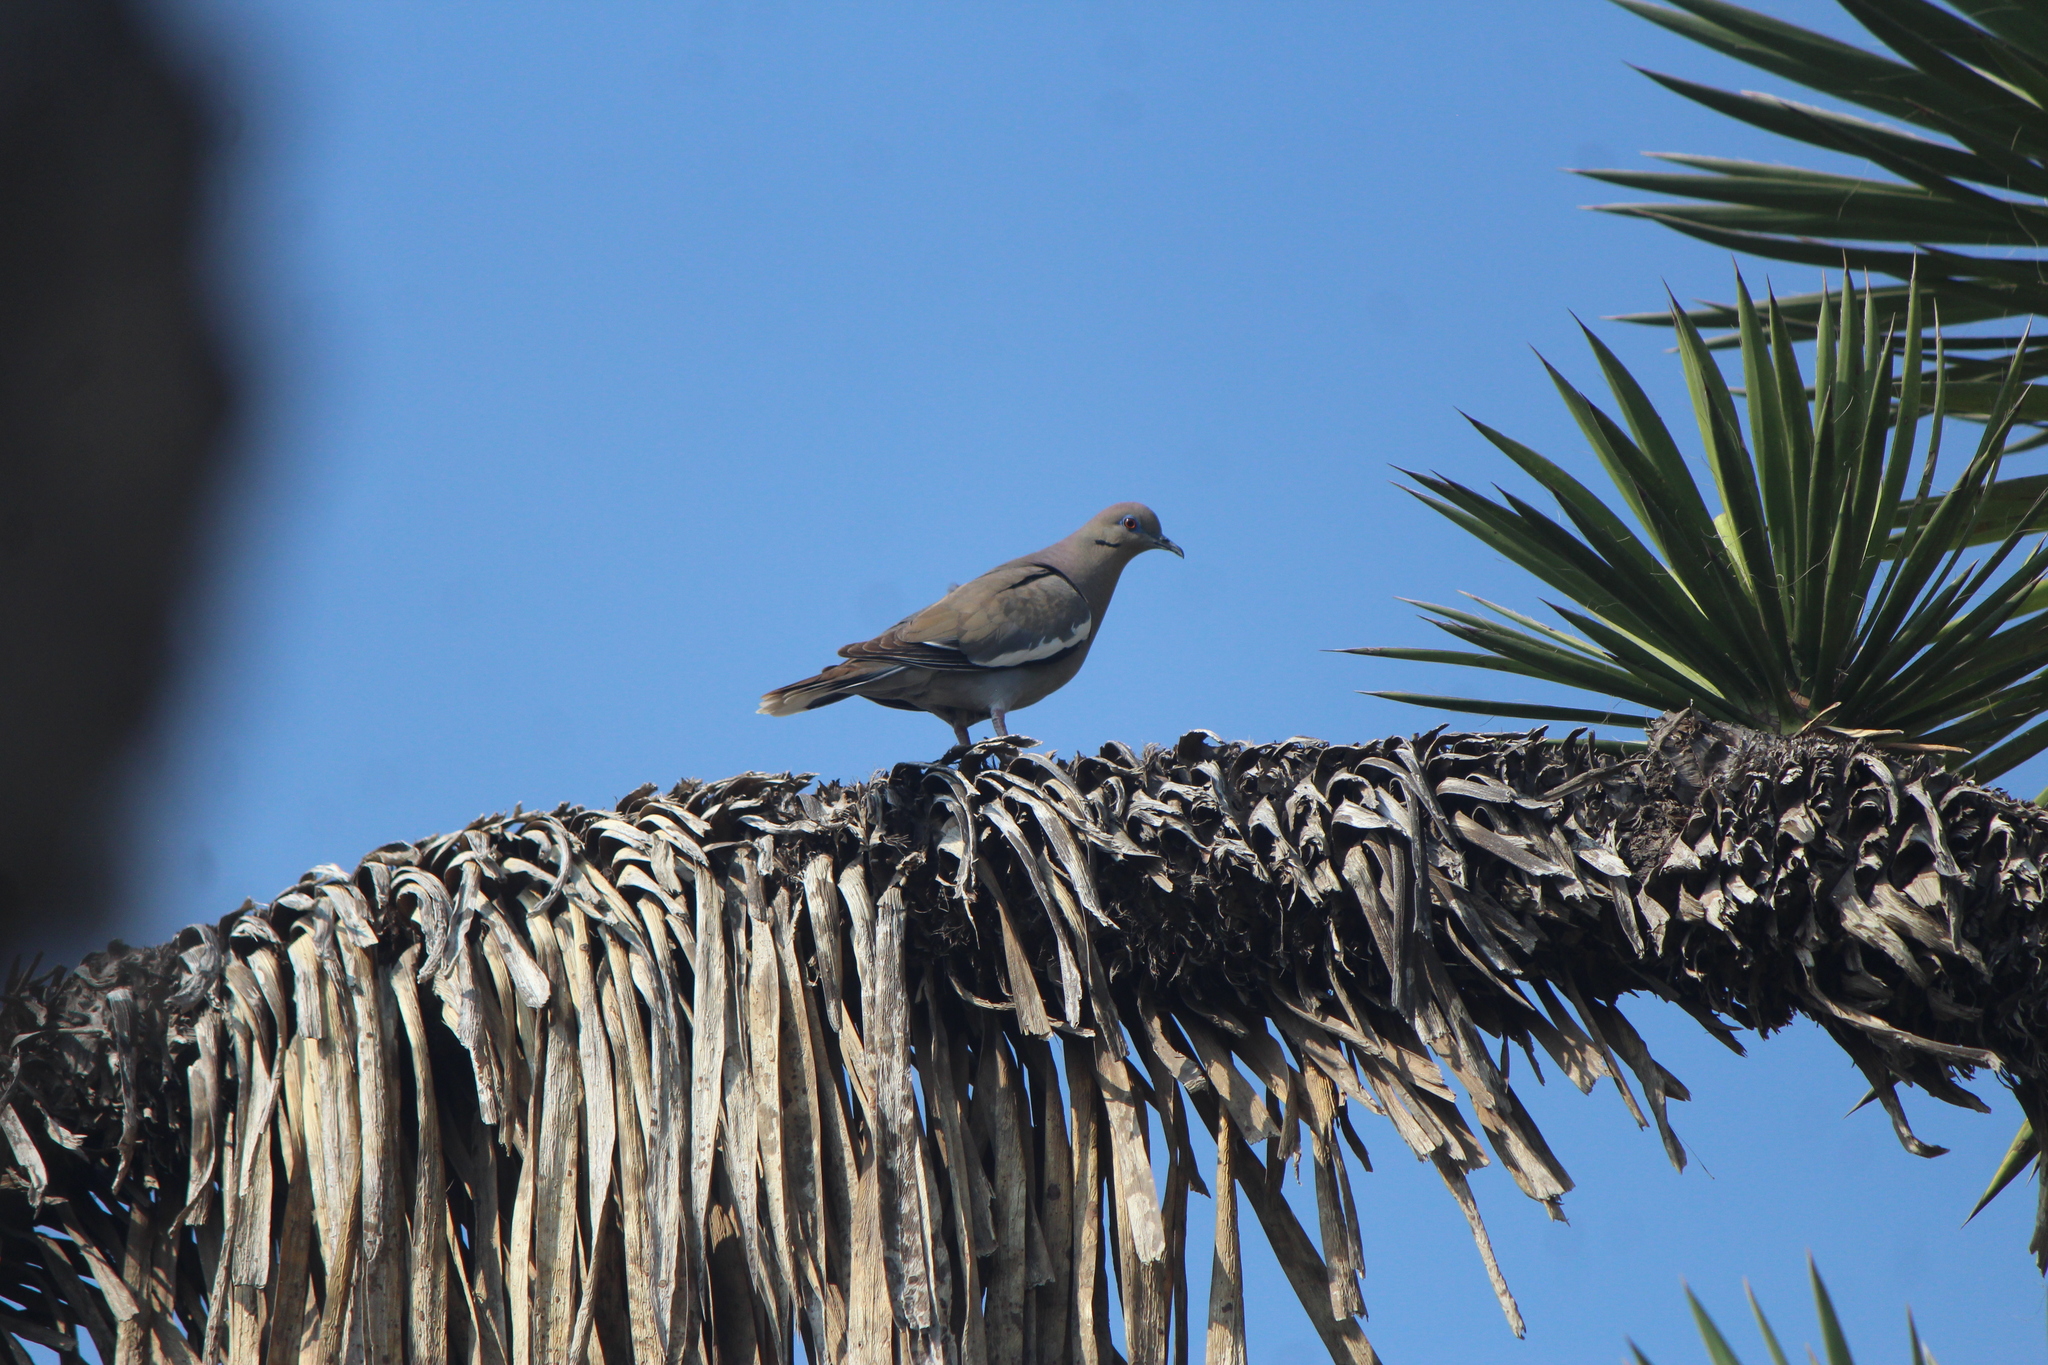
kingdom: Animalia
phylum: Chordata
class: Aves
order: Columbiformes
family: Columbidae
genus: Zenaida
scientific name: Zenaida asiatica
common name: White-winged dove
